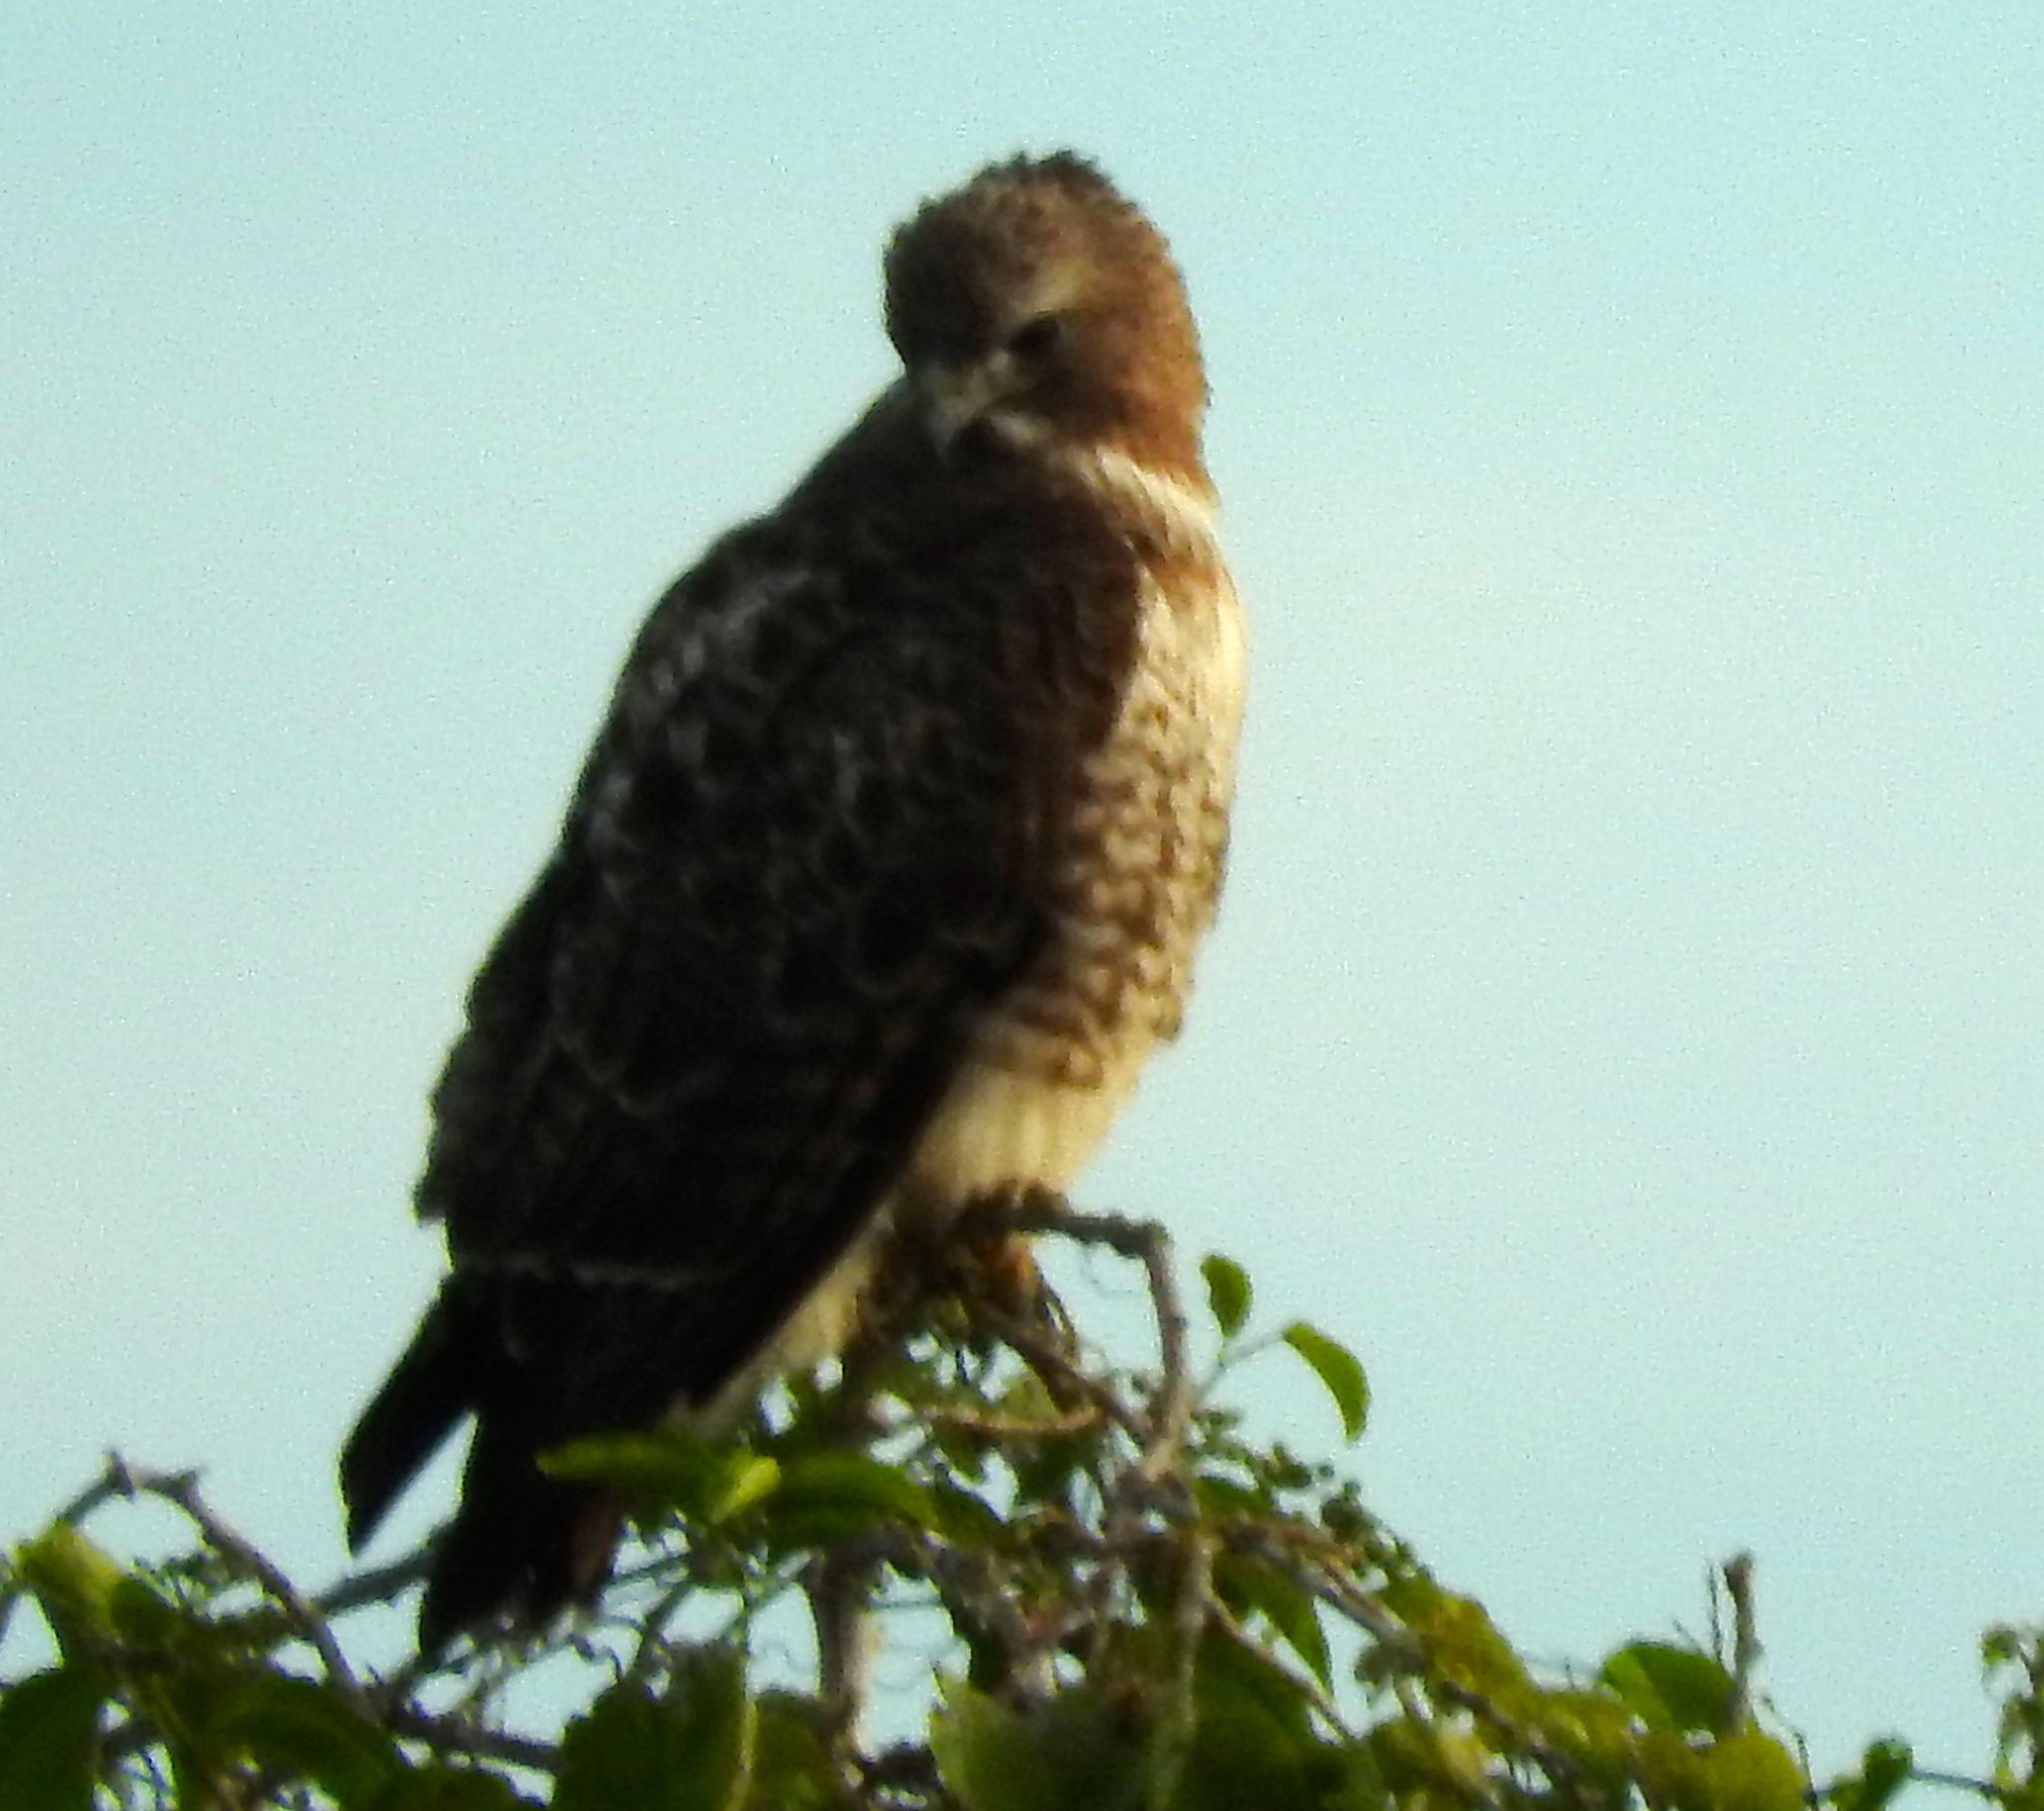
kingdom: Animalia
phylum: Chordata
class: Aves
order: Accipitriformes
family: Accipitridae
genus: Buteo
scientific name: Buteo jamaicensis
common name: Red-tailed hawk
